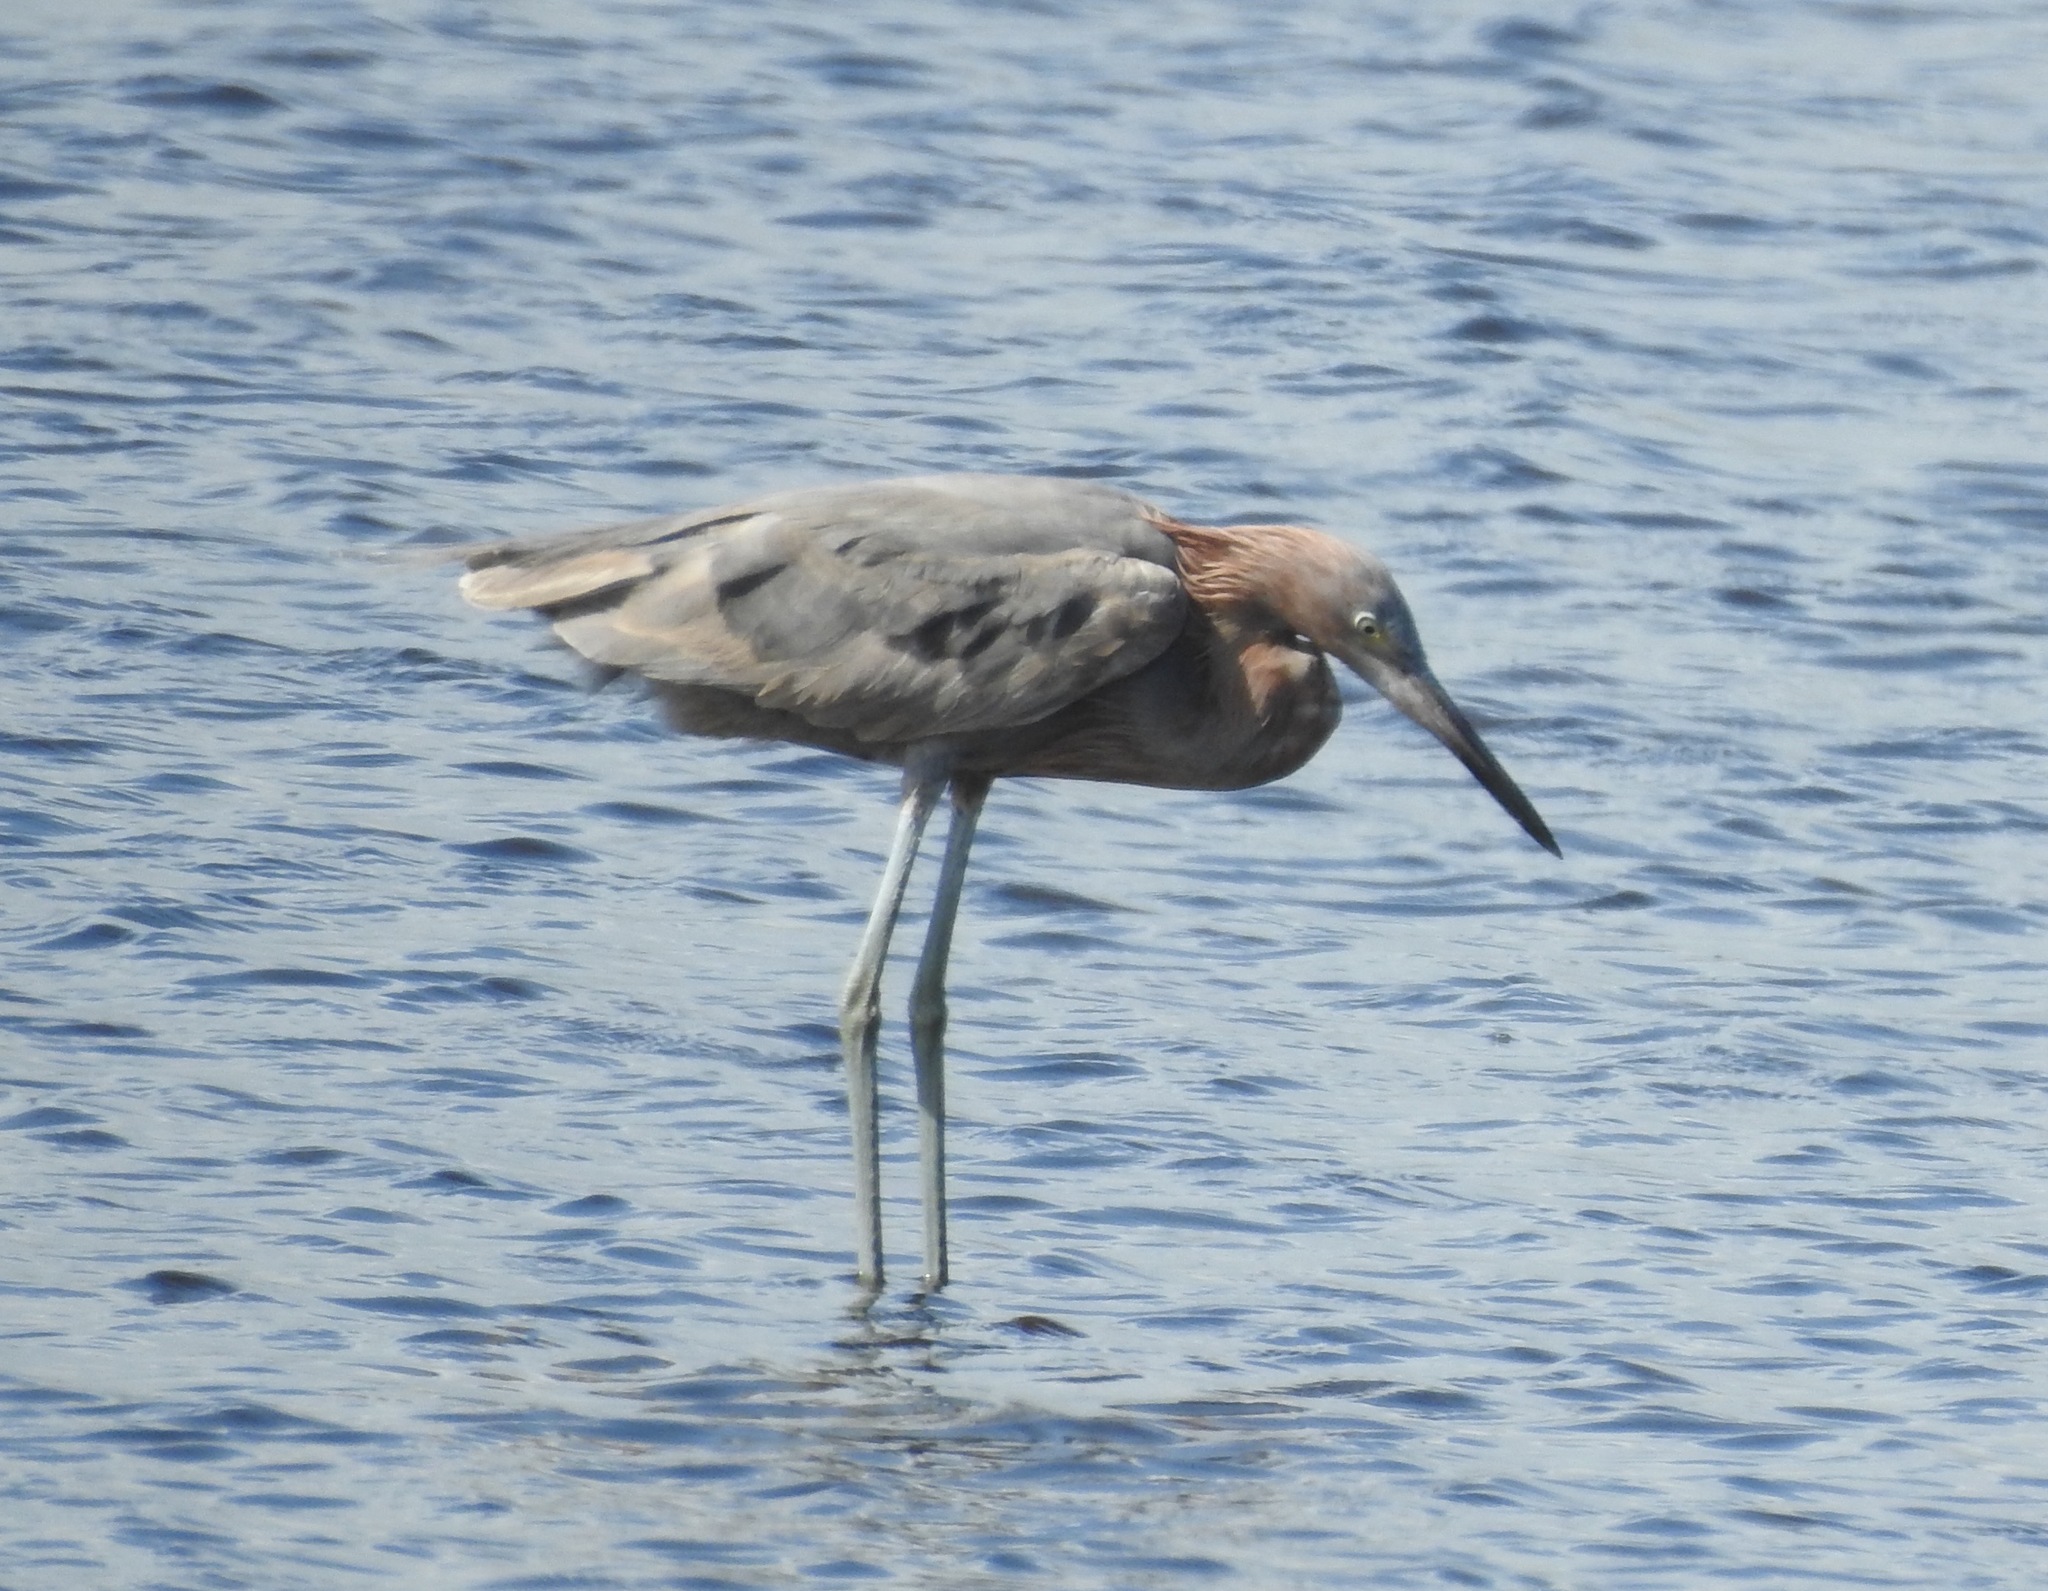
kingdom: Animalia
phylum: Chordata
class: Aves
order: Pelecaniformes
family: Ardeidae
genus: Egretta
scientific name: Egretta rufescens
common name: Reddish egret
